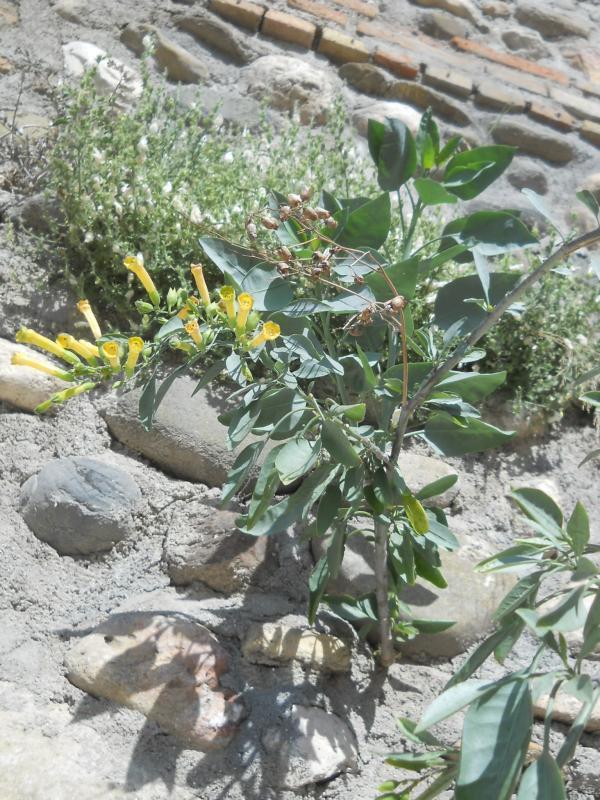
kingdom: Plantae
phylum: Tracheophyta
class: Magnoliopsida
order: Solanales
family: Solanaceae
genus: Nicotiana
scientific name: Nicotiana glauca
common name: Tree tobacco
